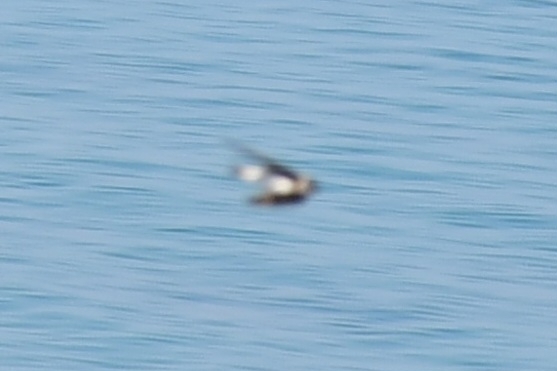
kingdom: Animalia
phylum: Chordata
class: Aves
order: Passeriformes
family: Hirundinidae
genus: Cecropis
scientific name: Cecropis daurica
